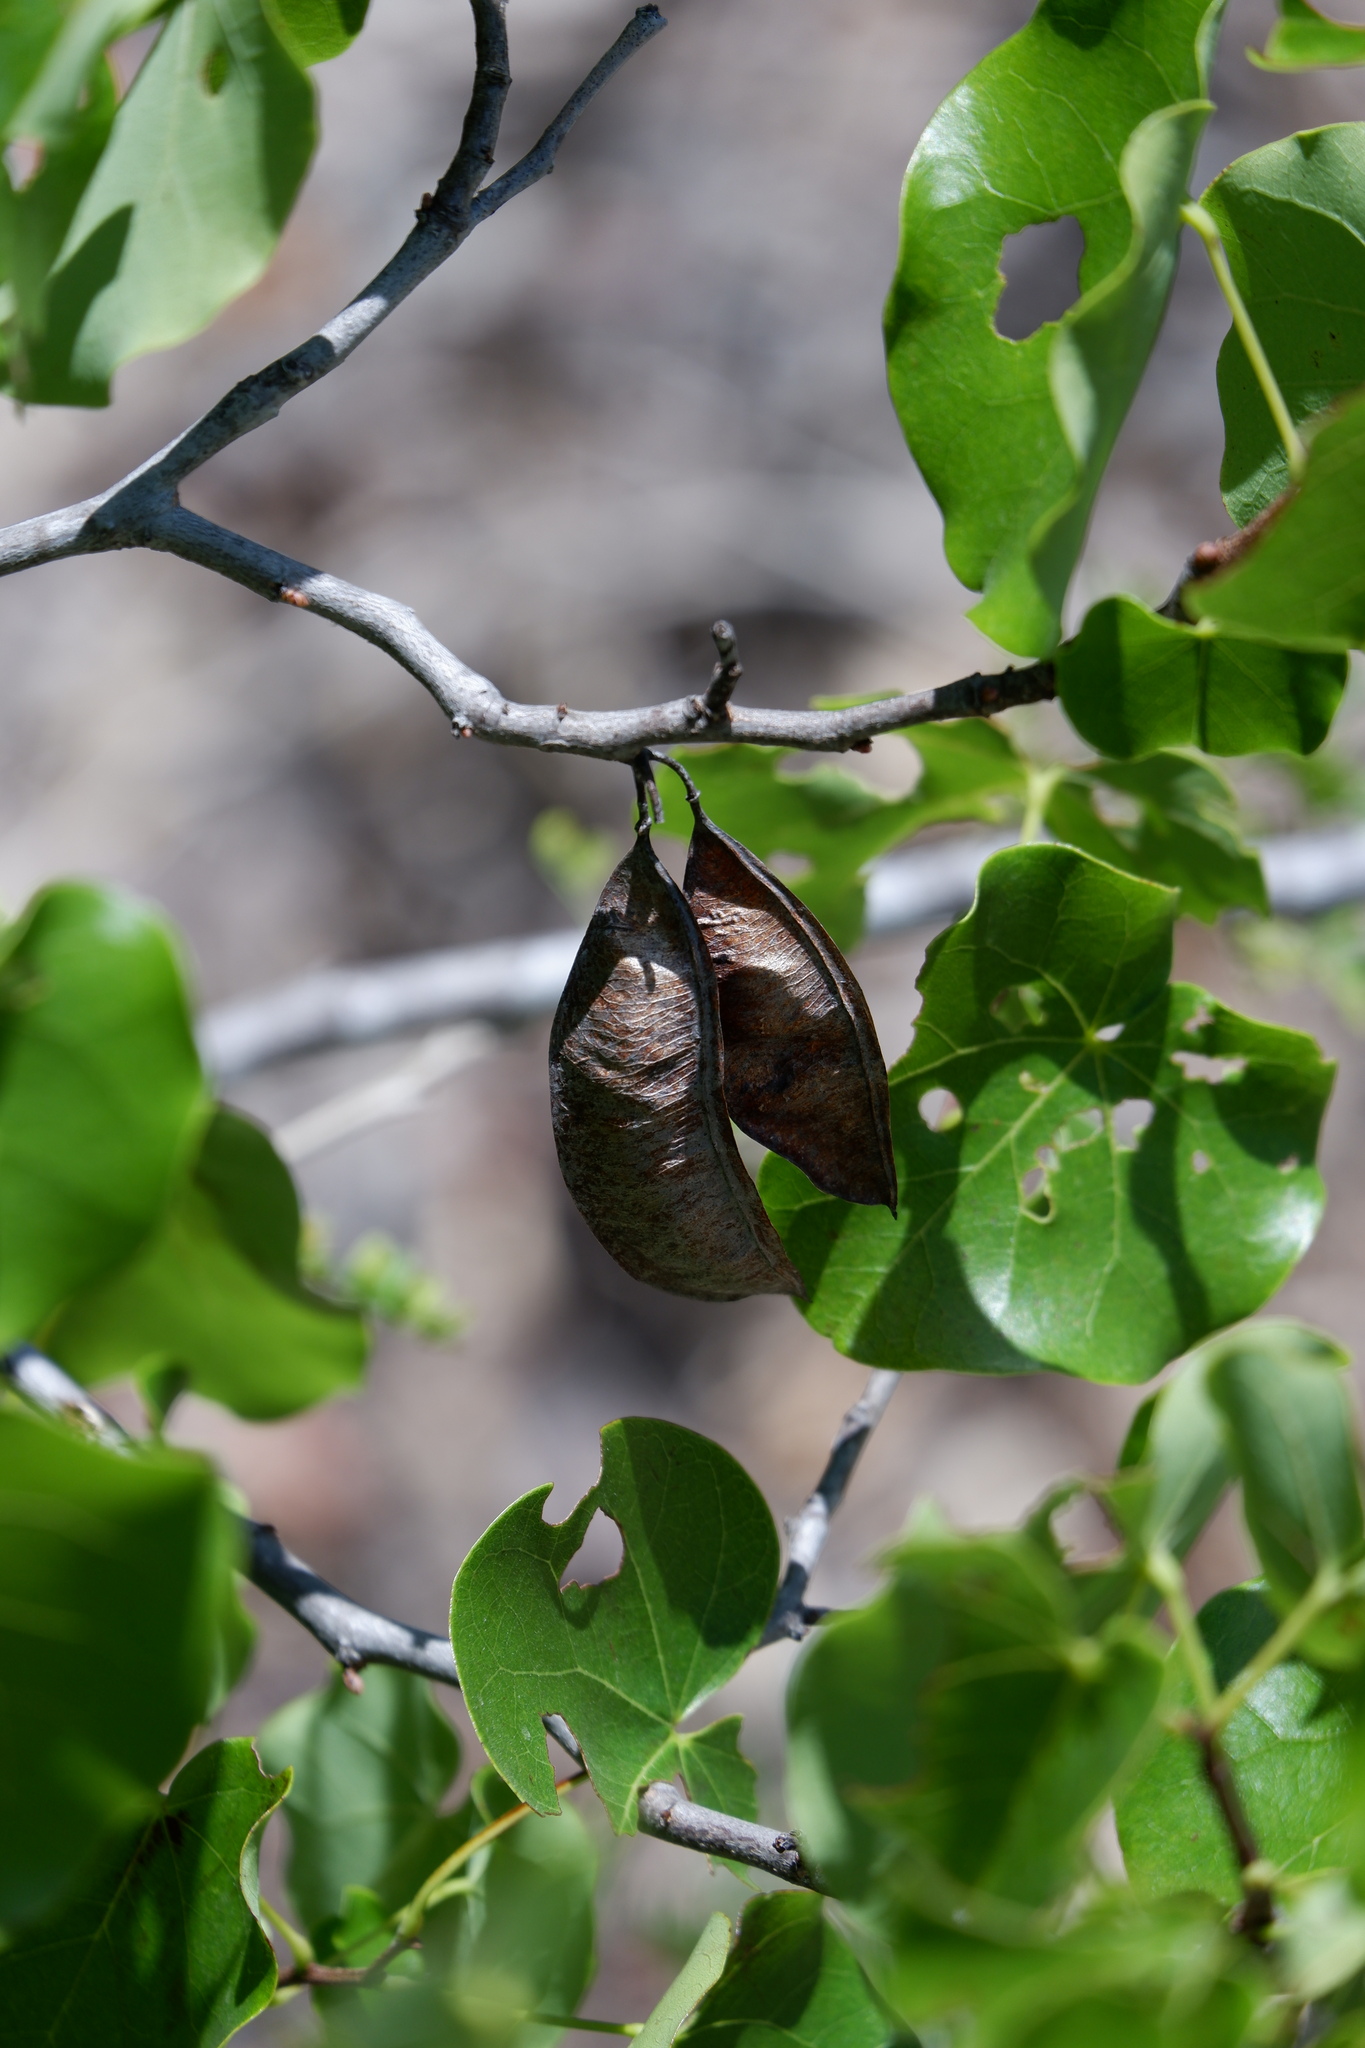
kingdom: Plantae
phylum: Tracheophyta
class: Magnoliopsida
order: Fabales
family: Fabaceae
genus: Cercis
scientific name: Cercis canadensis
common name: Eastern redbud
